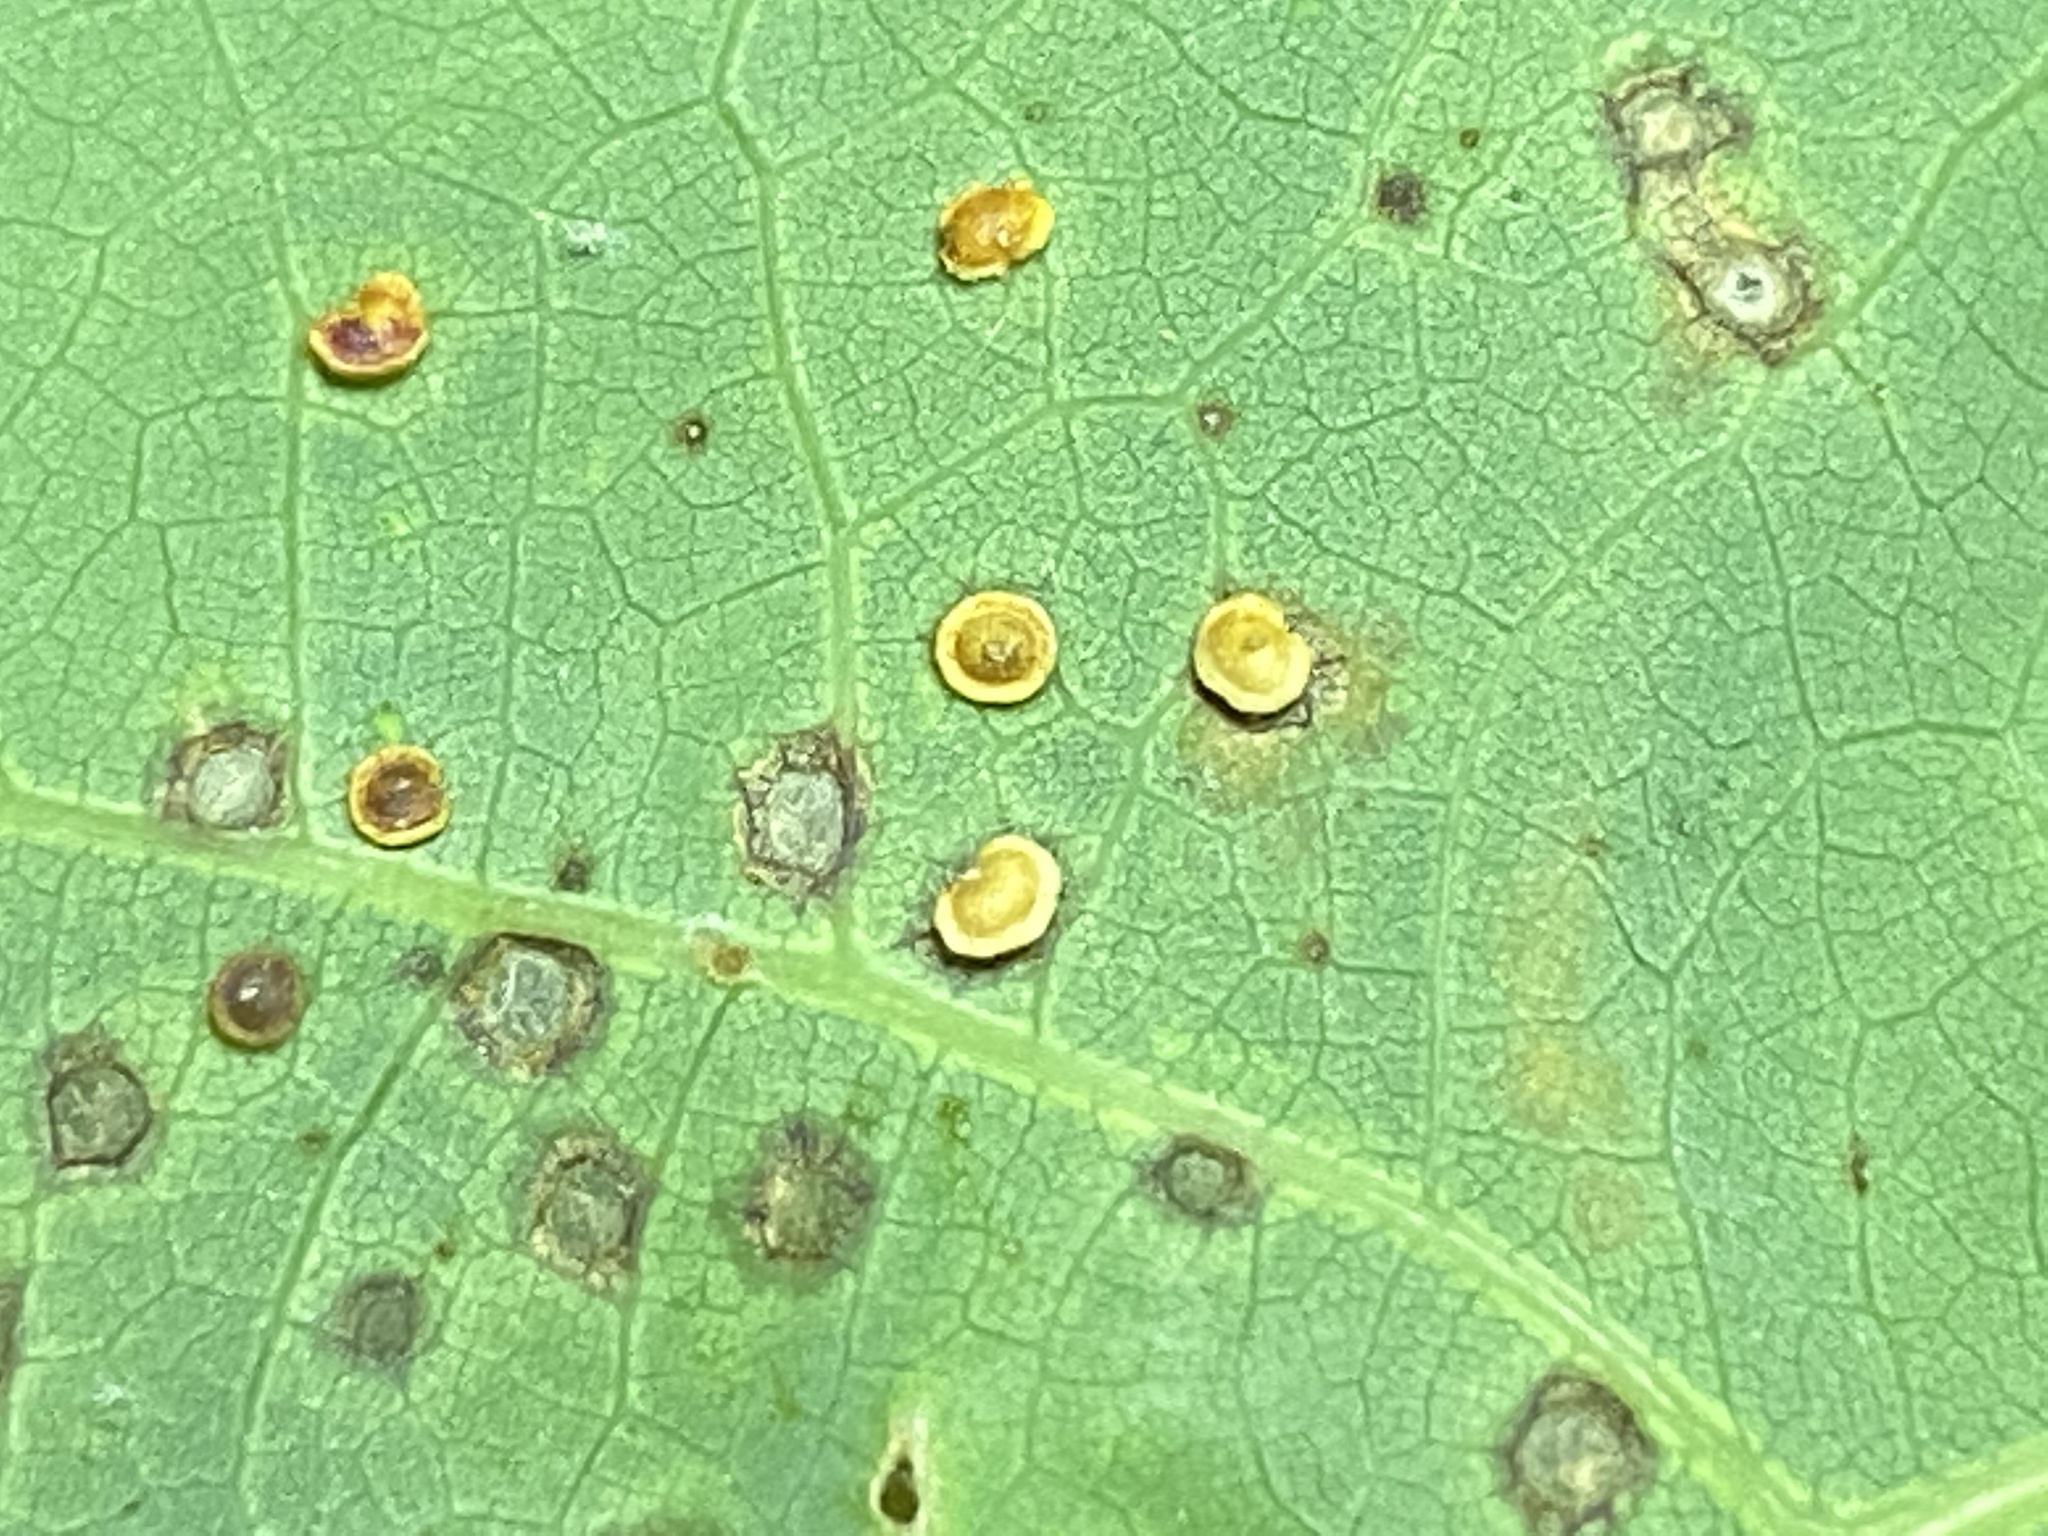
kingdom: Animalia
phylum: Arthropoda
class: Insecta
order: Hymenoptera
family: Cynipidae
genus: Neuroterus
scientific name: Neuroterus
